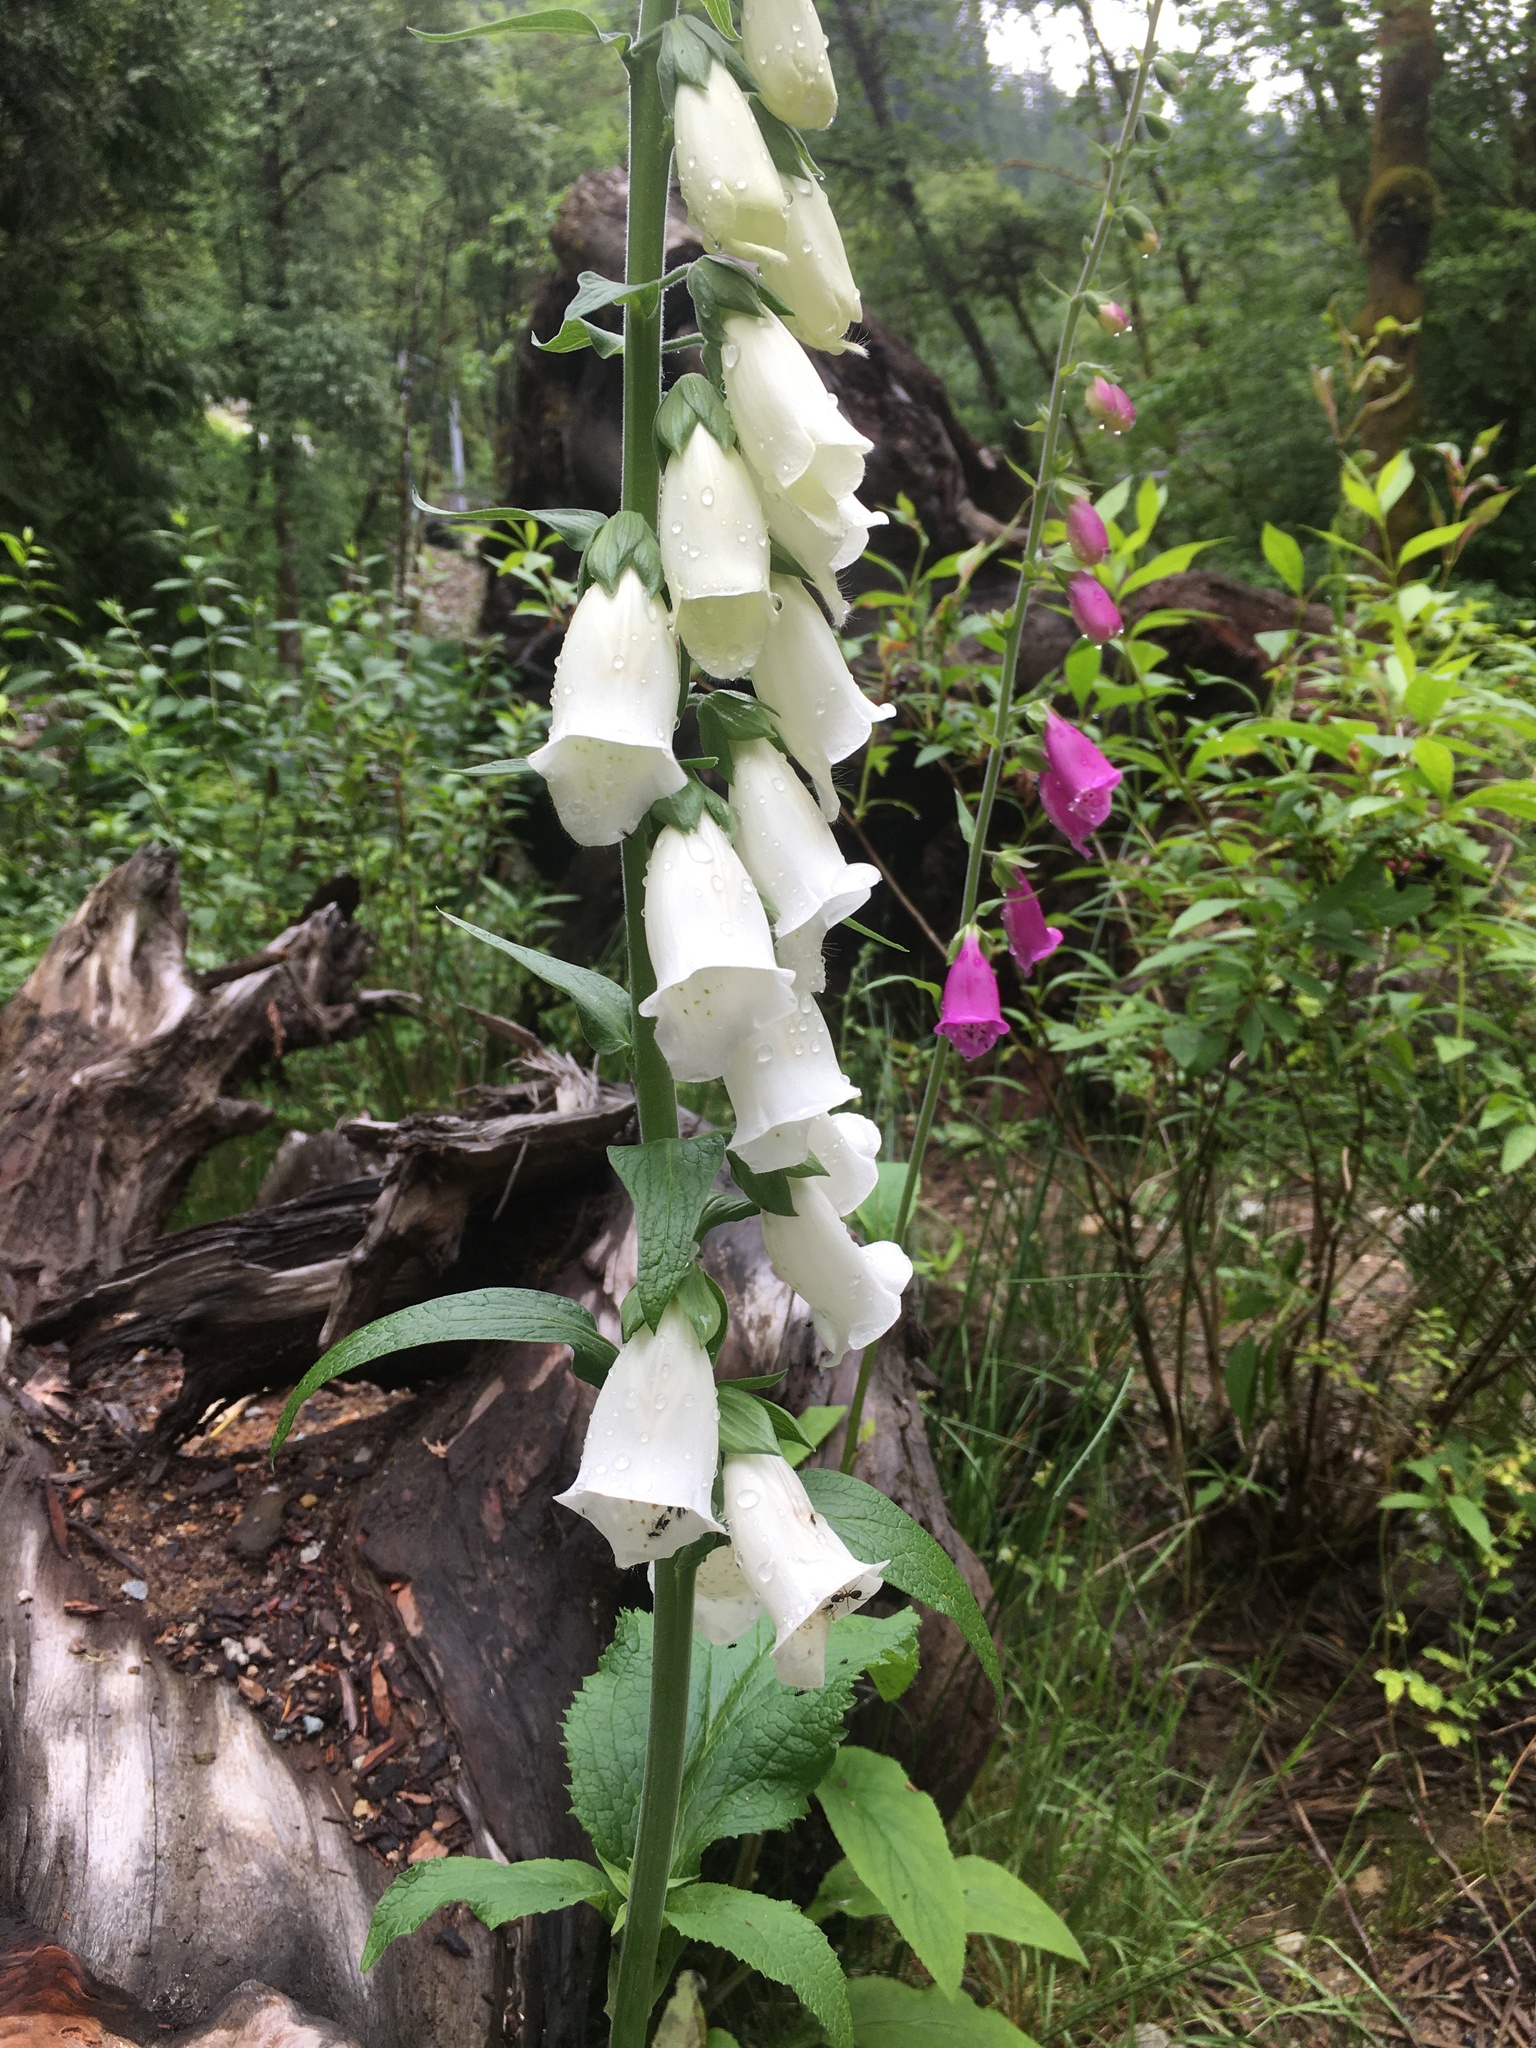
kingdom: Plantae
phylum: Tracheophyta
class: Magnoliopsida
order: Lamiales
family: Plantaginaceae
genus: Digitalis
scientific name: Digitalis purpurea
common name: Foxglove
